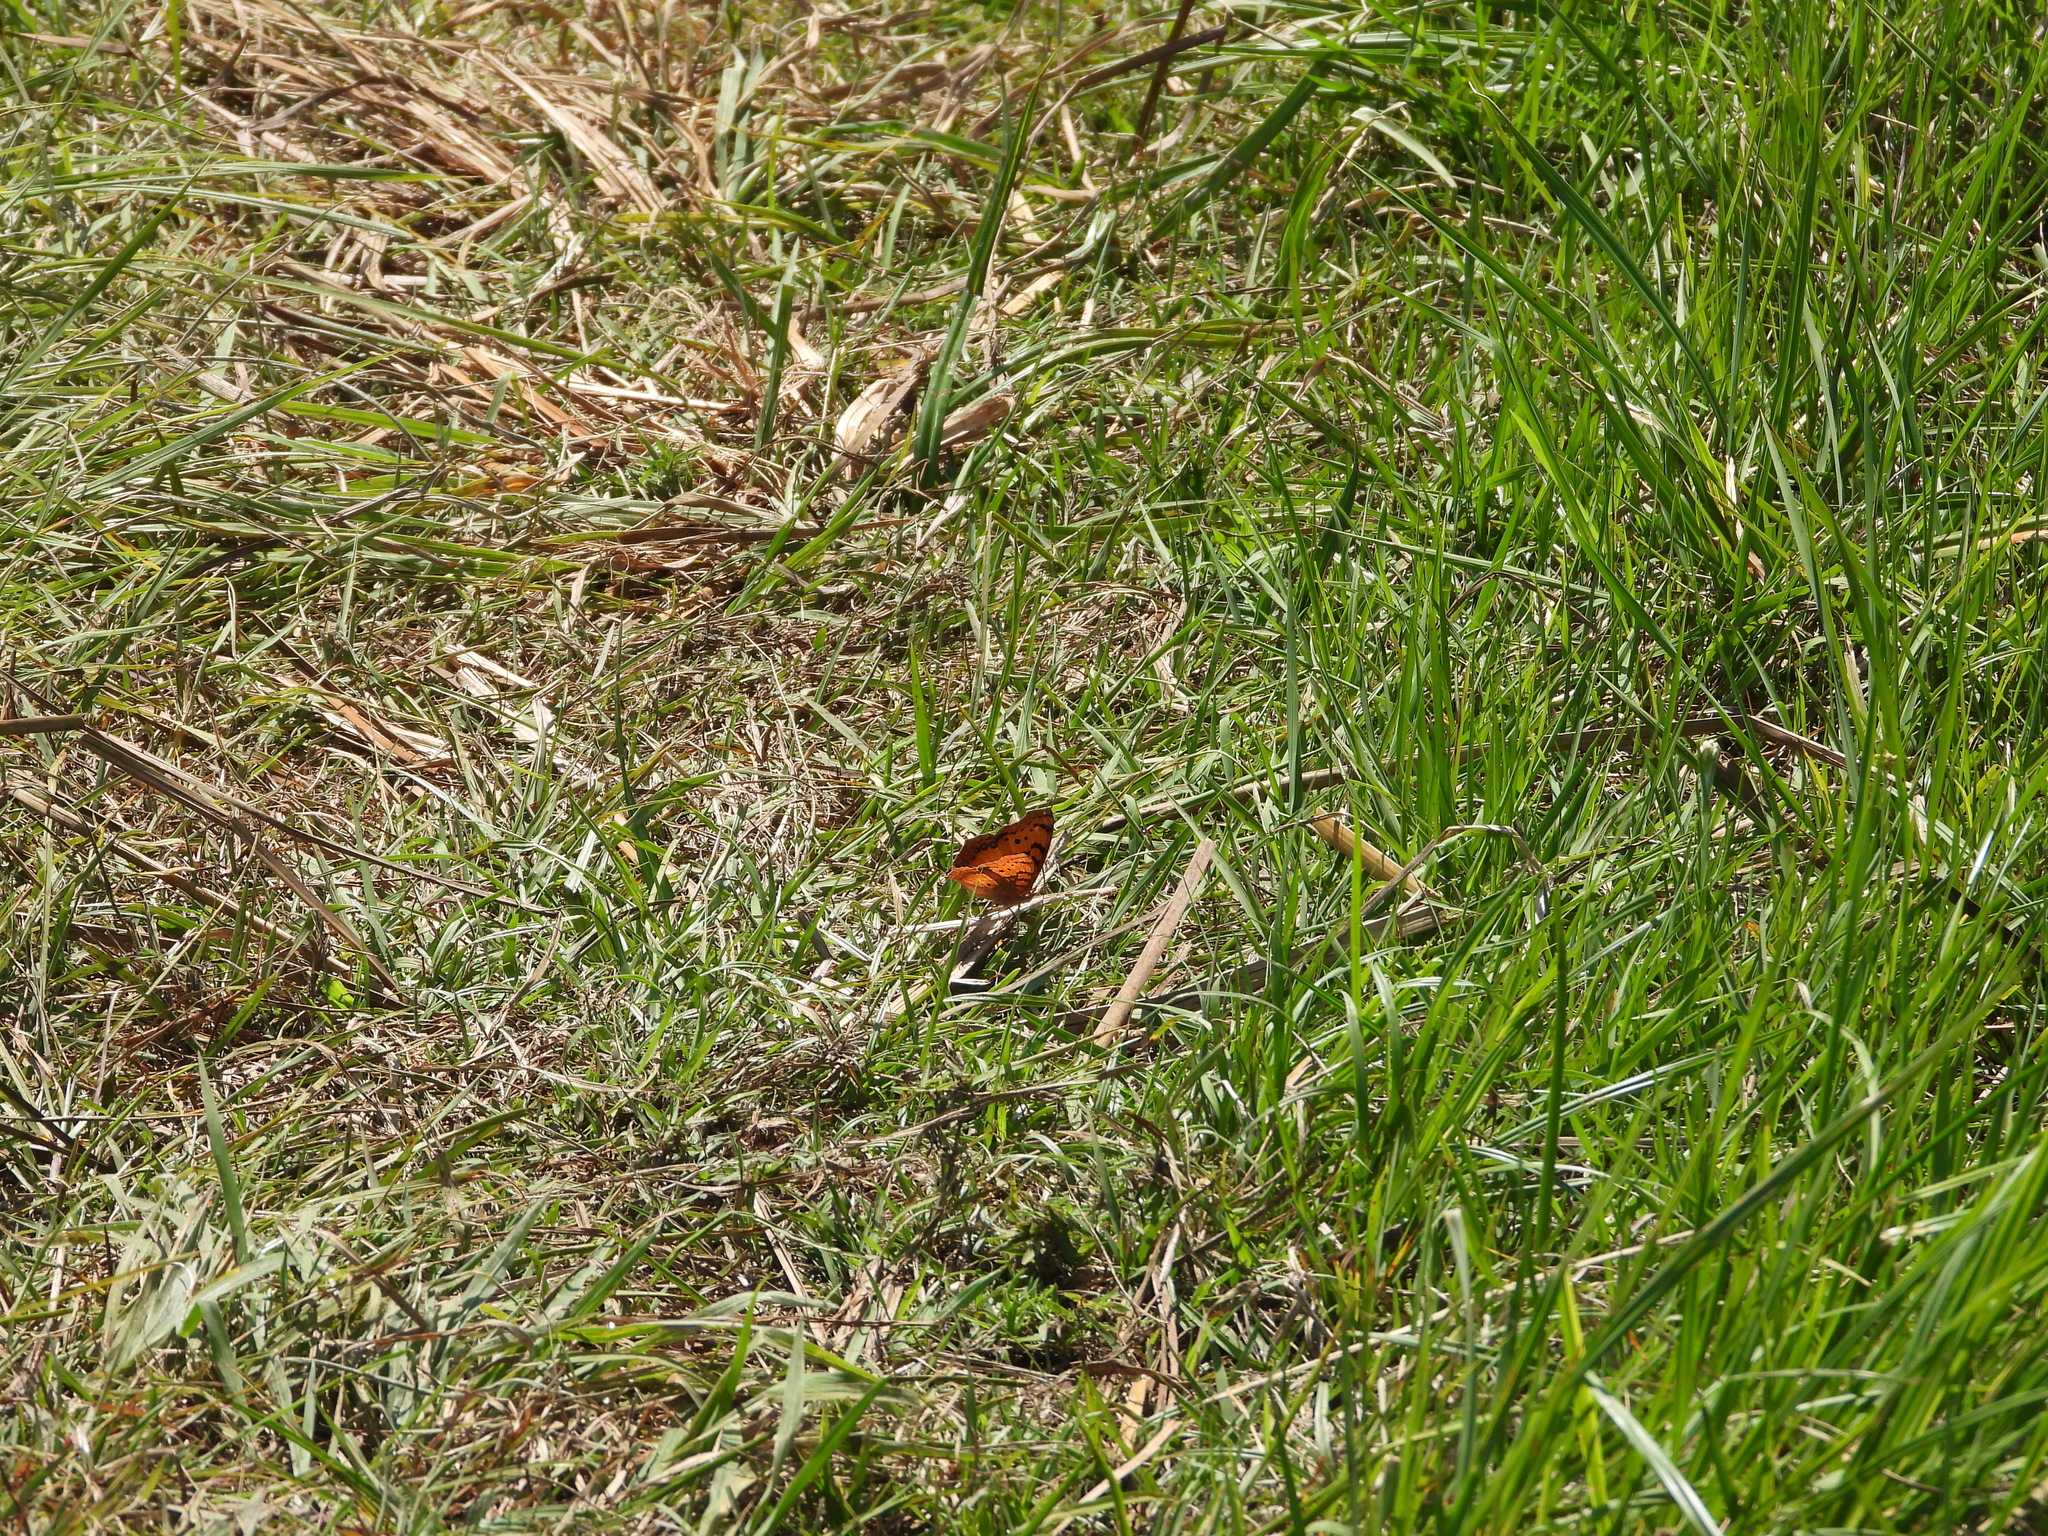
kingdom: Animalia
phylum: Arthropoda
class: Insecta
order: Lepidoptera
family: Nymphalidae
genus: Catacroptera
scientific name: Catacroptera cloanthe
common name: Pirate
